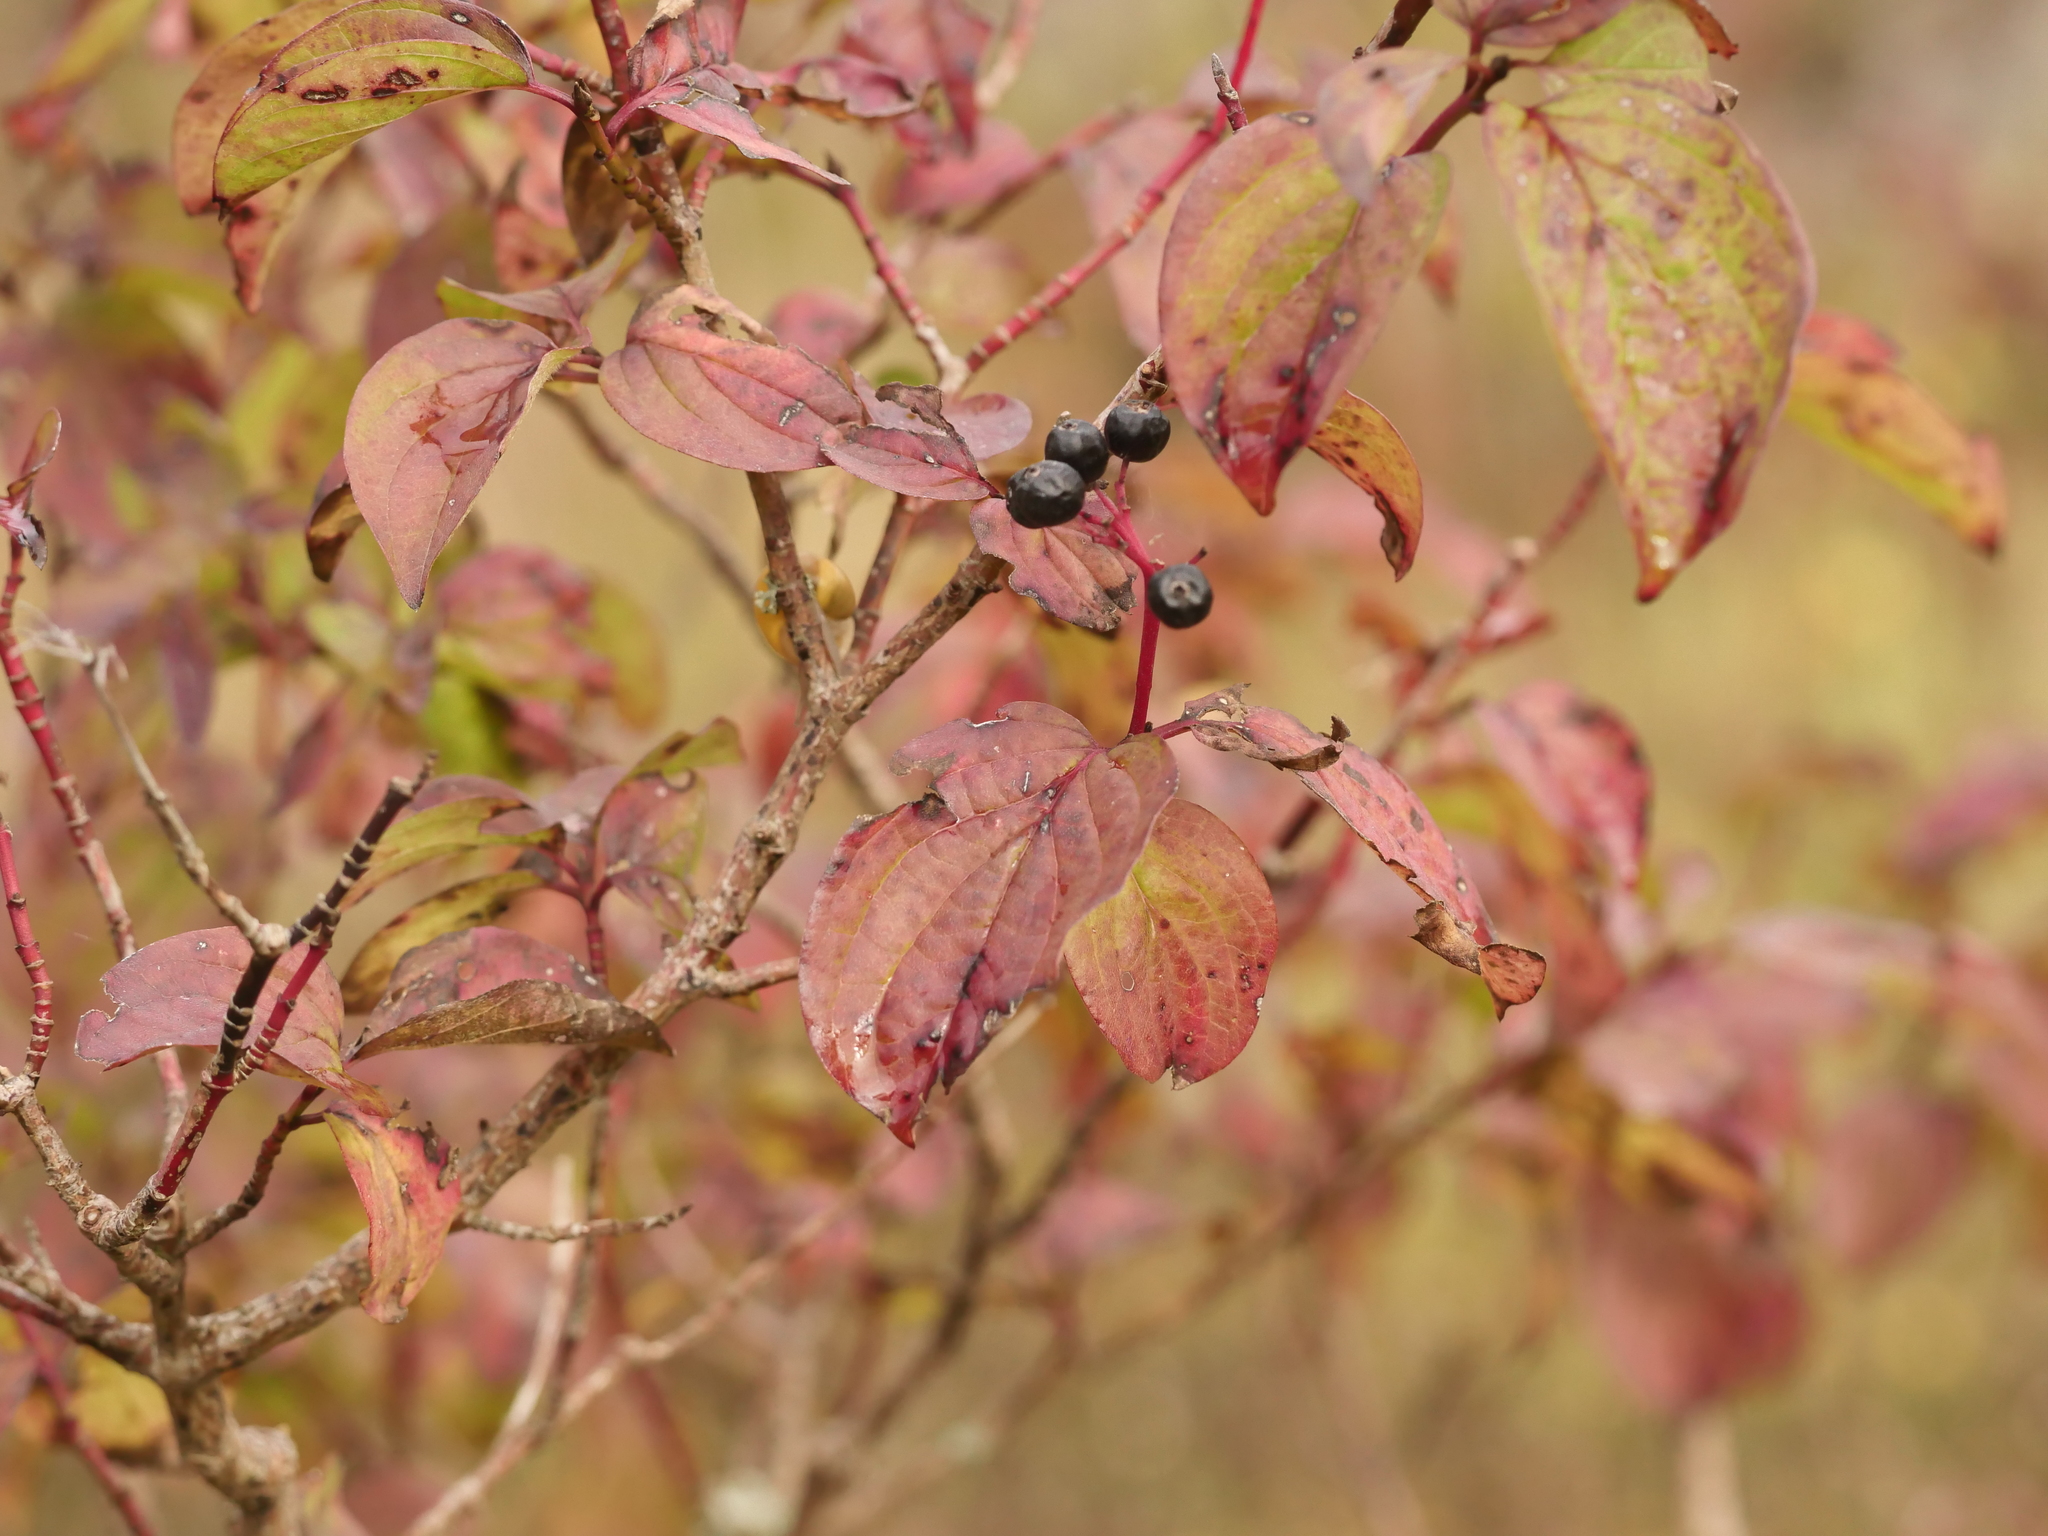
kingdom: Plantae
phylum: Tracheophyta
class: Magnoliopsida
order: Cornales
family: Cornaceae
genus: Cornus
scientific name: Cornus sanguinea
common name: Dogwood
